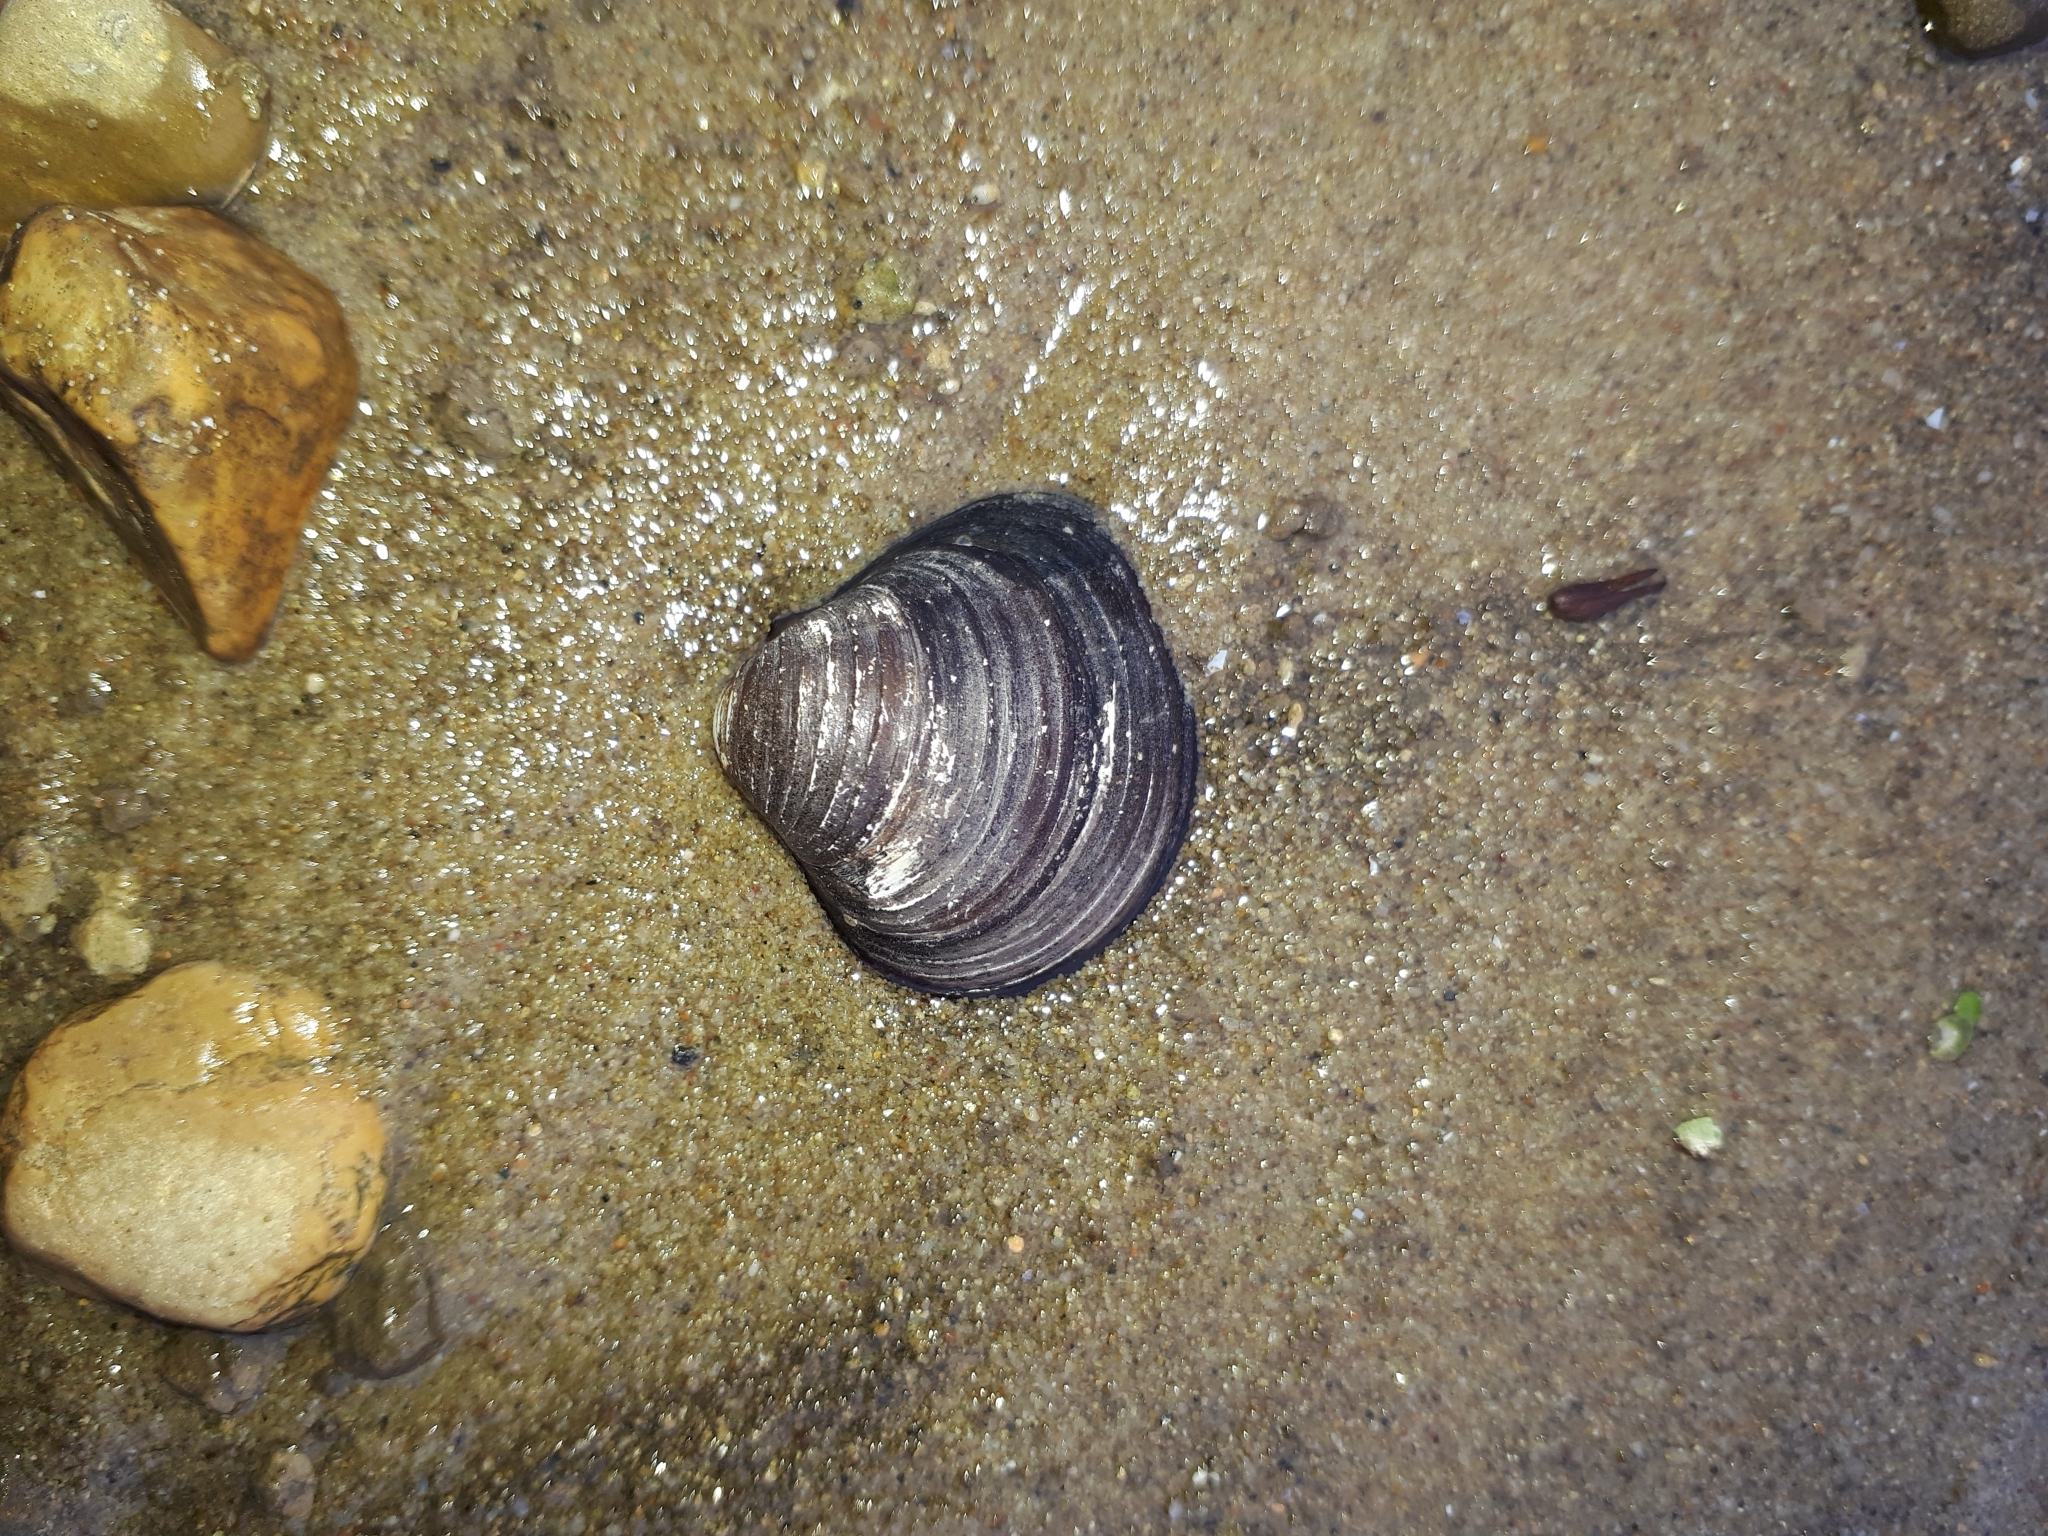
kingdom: Animalia
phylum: Mollusca
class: Bivalvia
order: Venerida
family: Cyrenidae
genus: Corbicula
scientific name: Corbicula fluminea
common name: Asian clam
